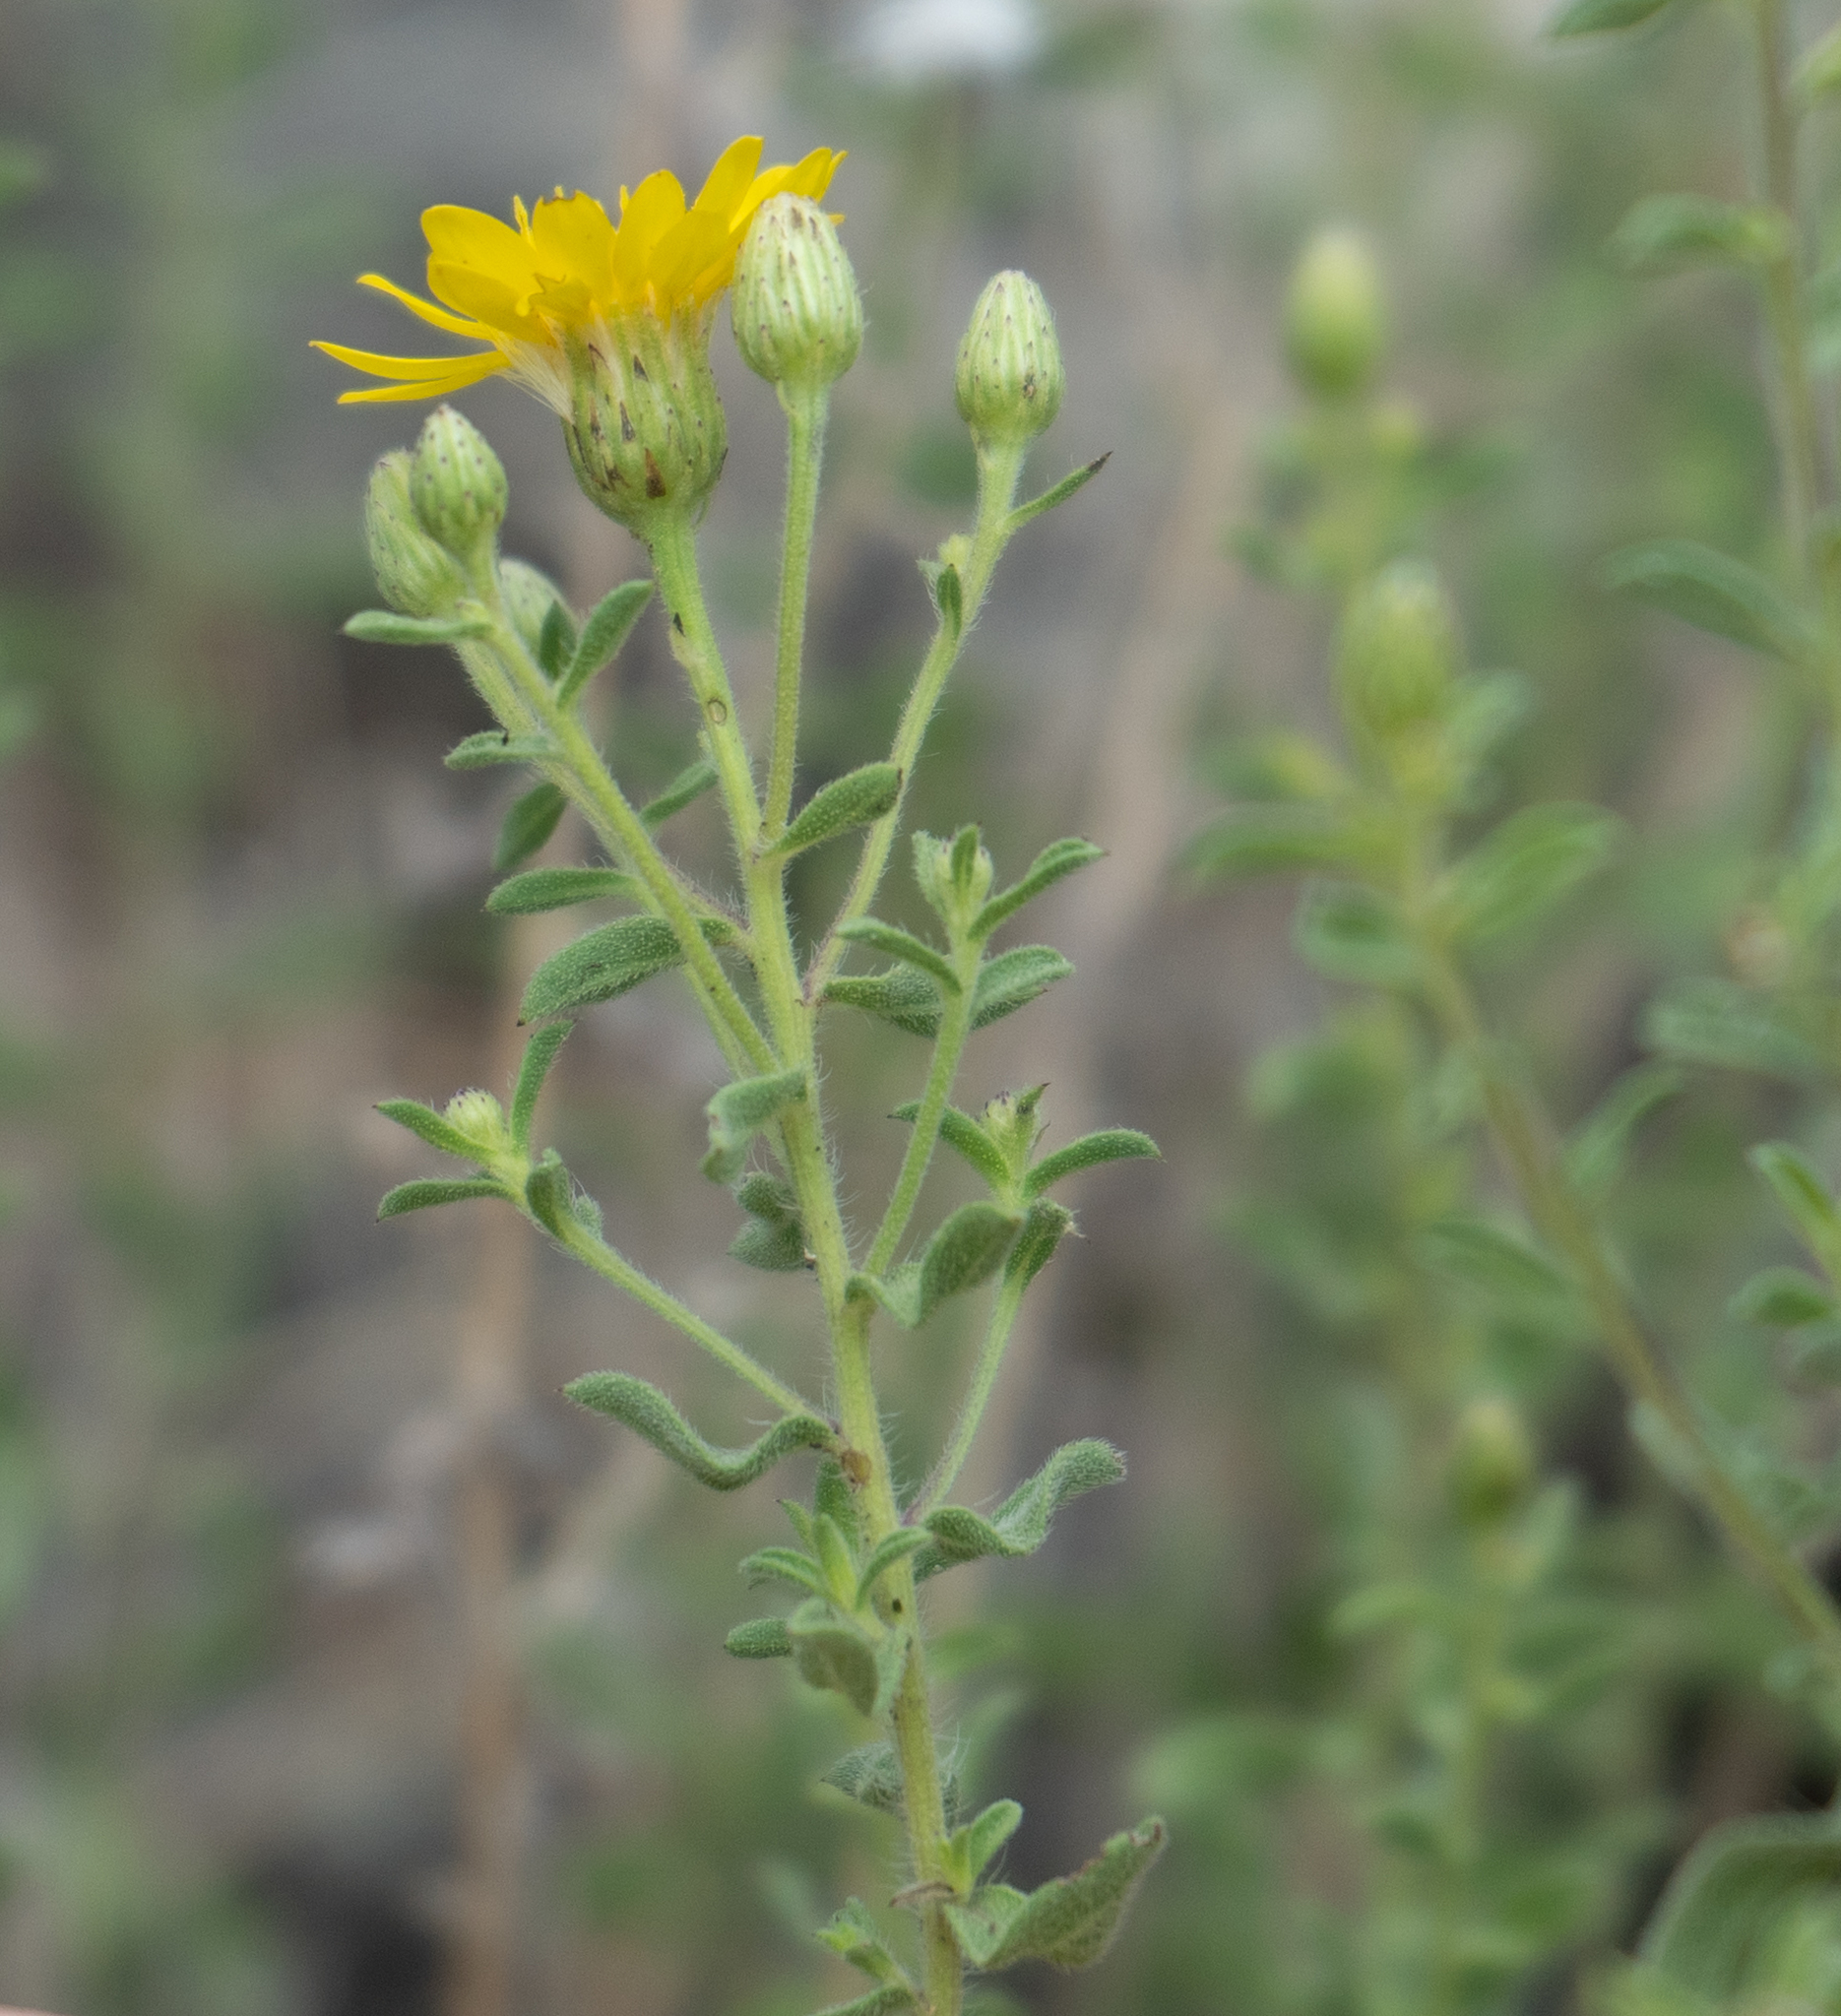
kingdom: Plantae
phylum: Tracheophyta
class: Magnoliopsida
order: Asterales
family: Asteraceae
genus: Heterotheca
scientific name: Heterotheca hirsutissima
